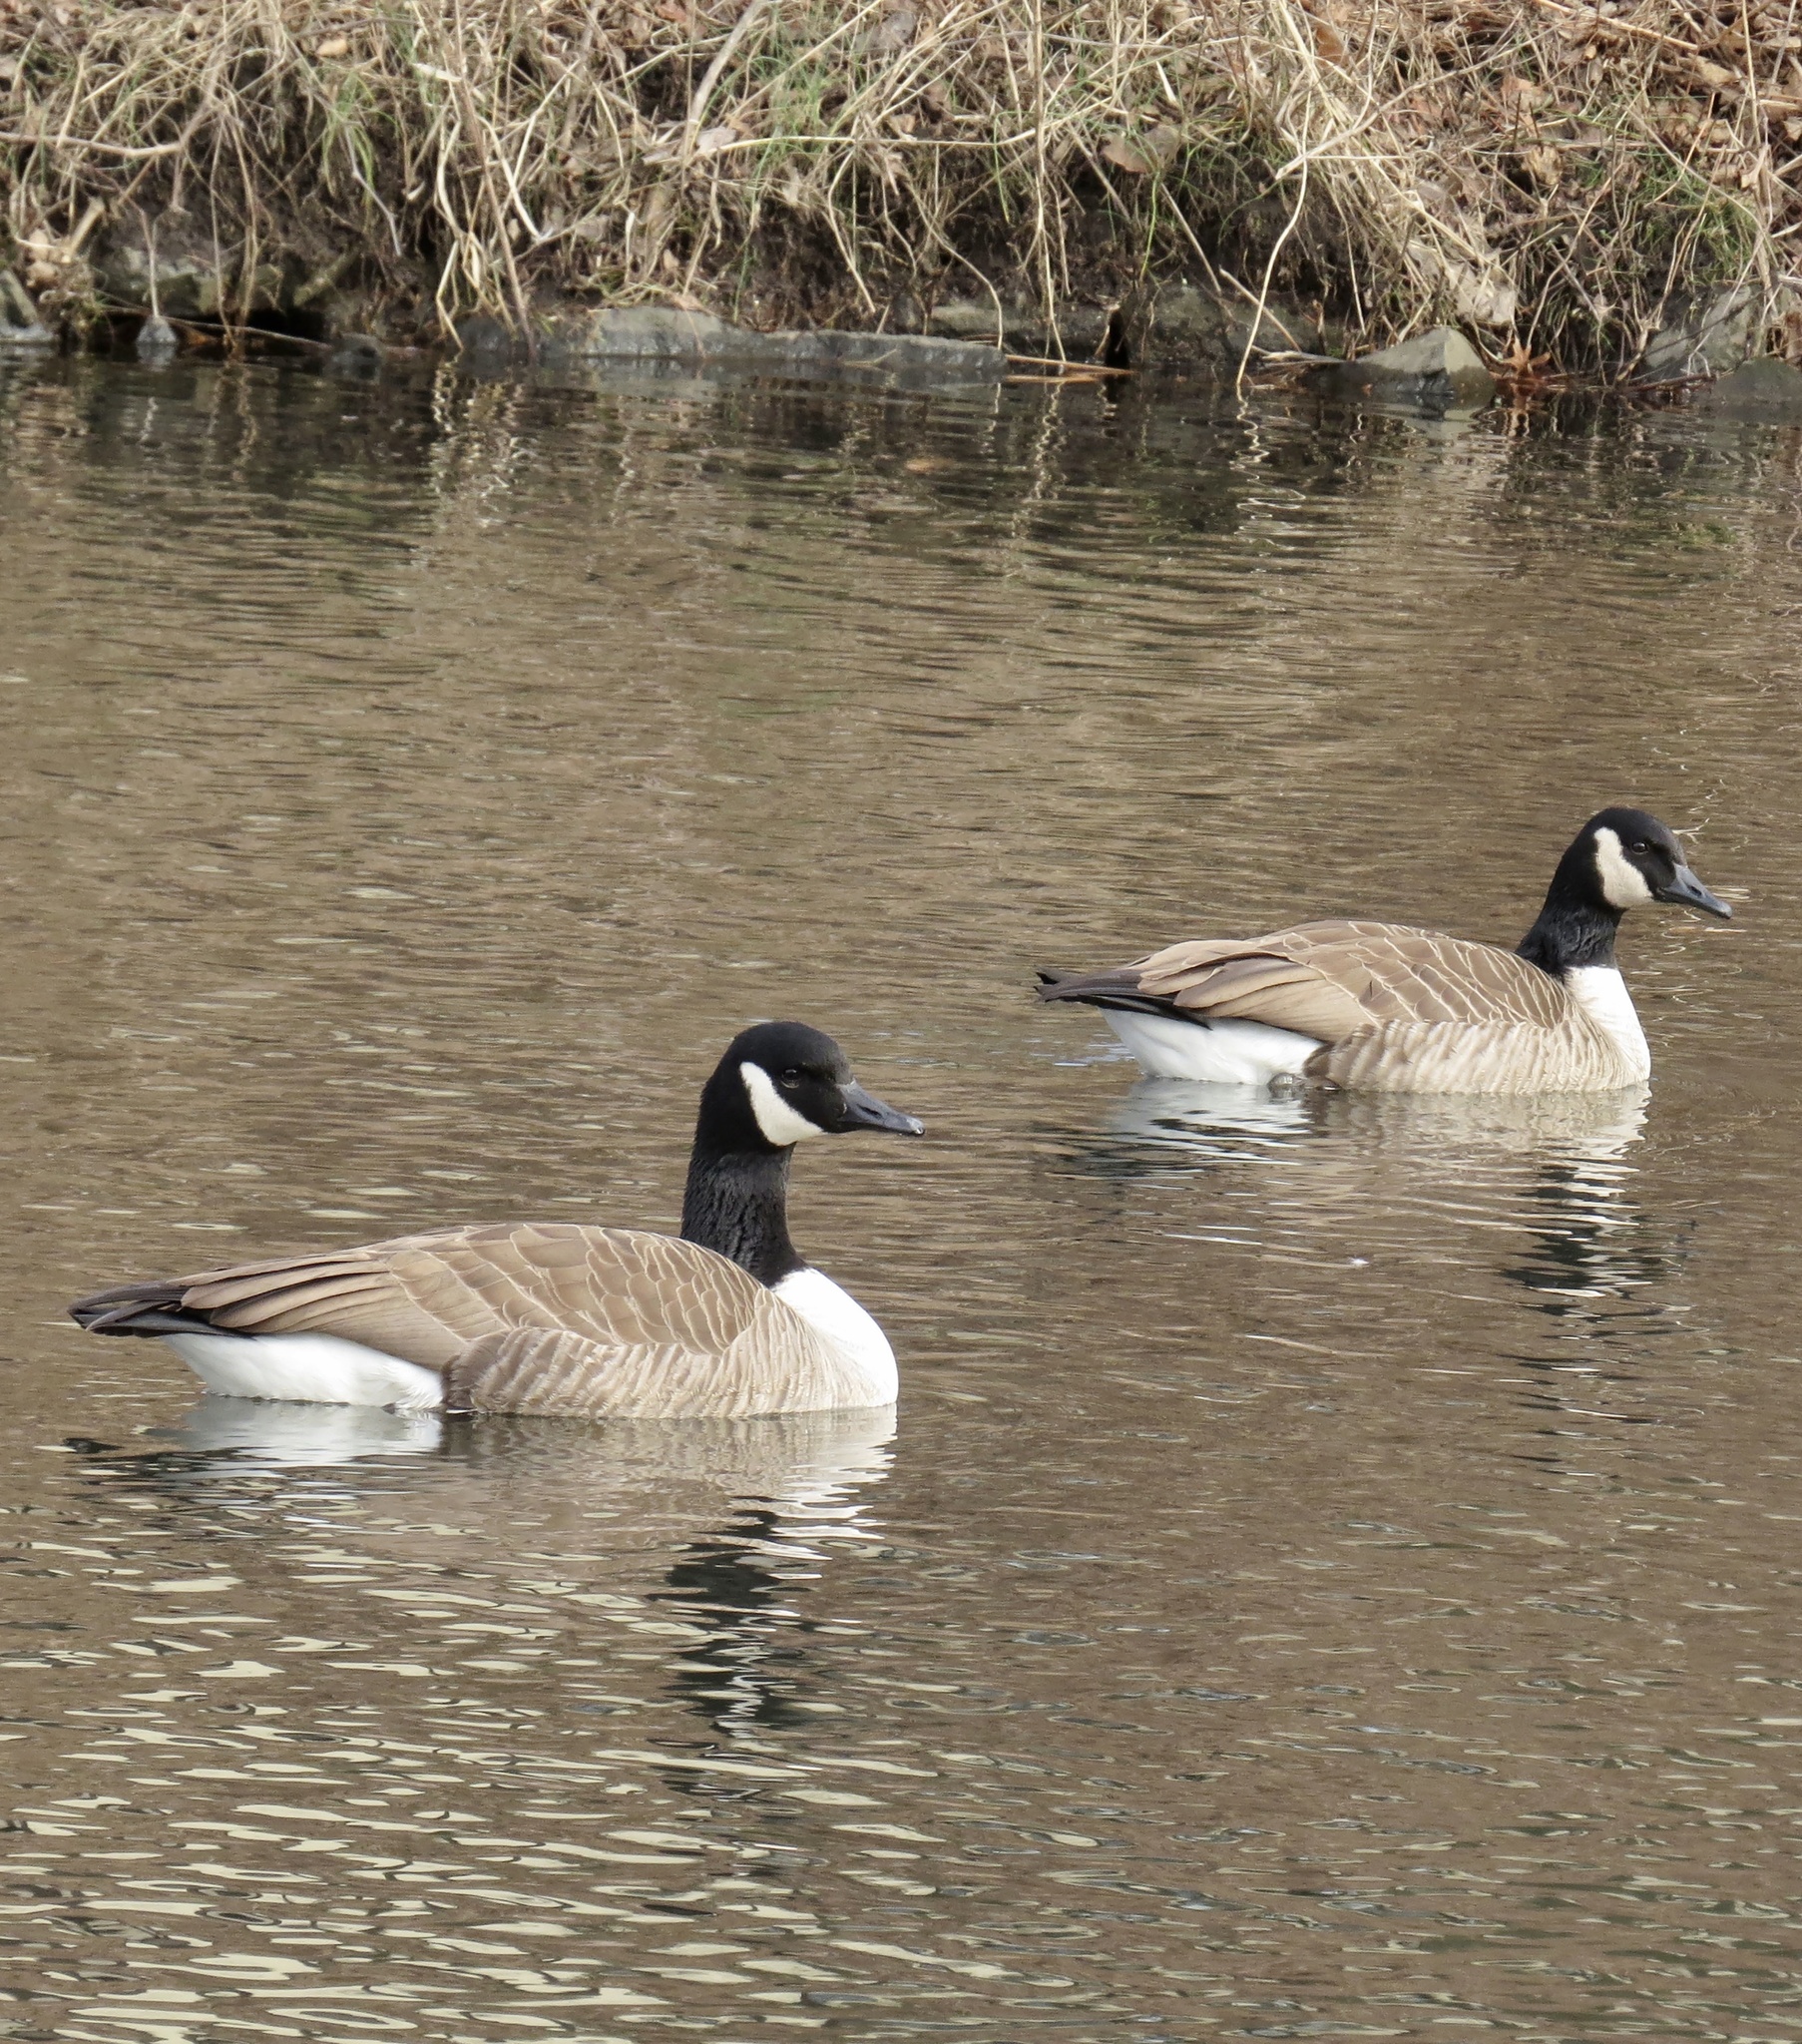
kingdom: Animalia
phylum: Chordata
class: Aves
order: Anseriformes
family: Anatidae
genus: Branta
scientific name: Branta canadensis
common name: Canada goose
